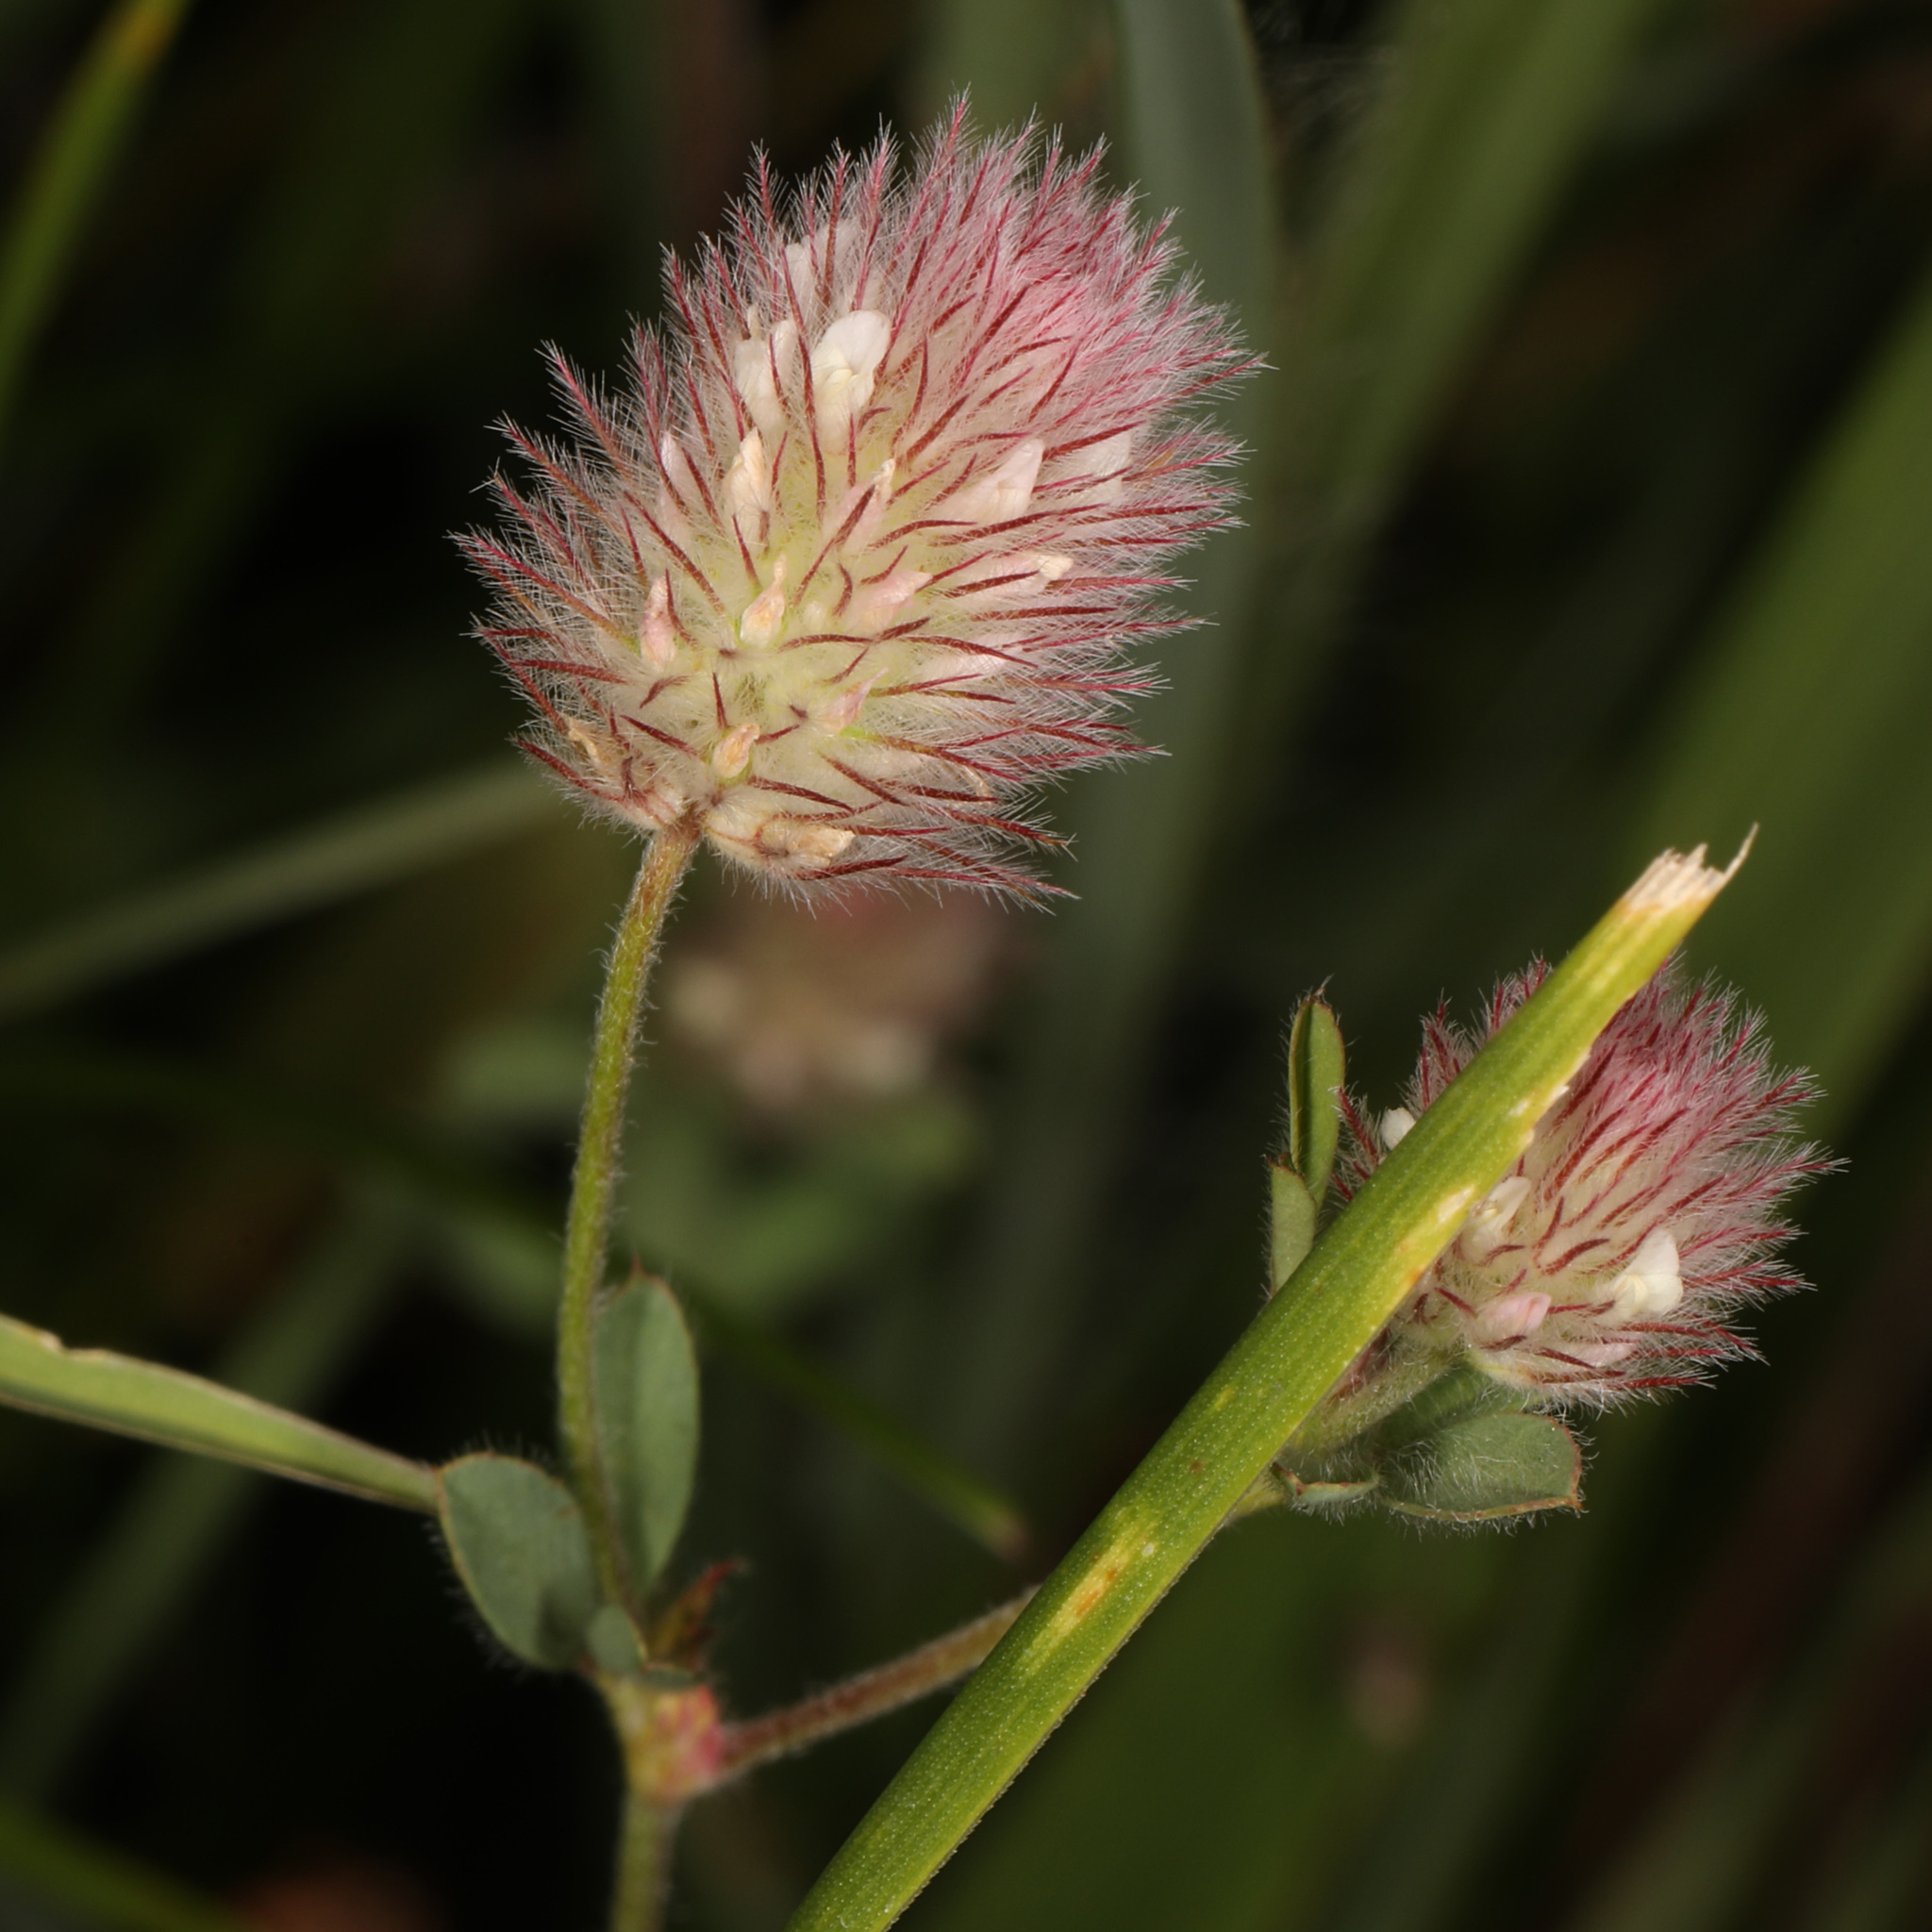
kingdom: Plantae
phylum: Tracheophyta
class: Magnoliopsida
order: Fabales
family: Fabaceae
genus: Trifolium
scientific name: Trifolium arvense
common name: Hare's-foot clover
